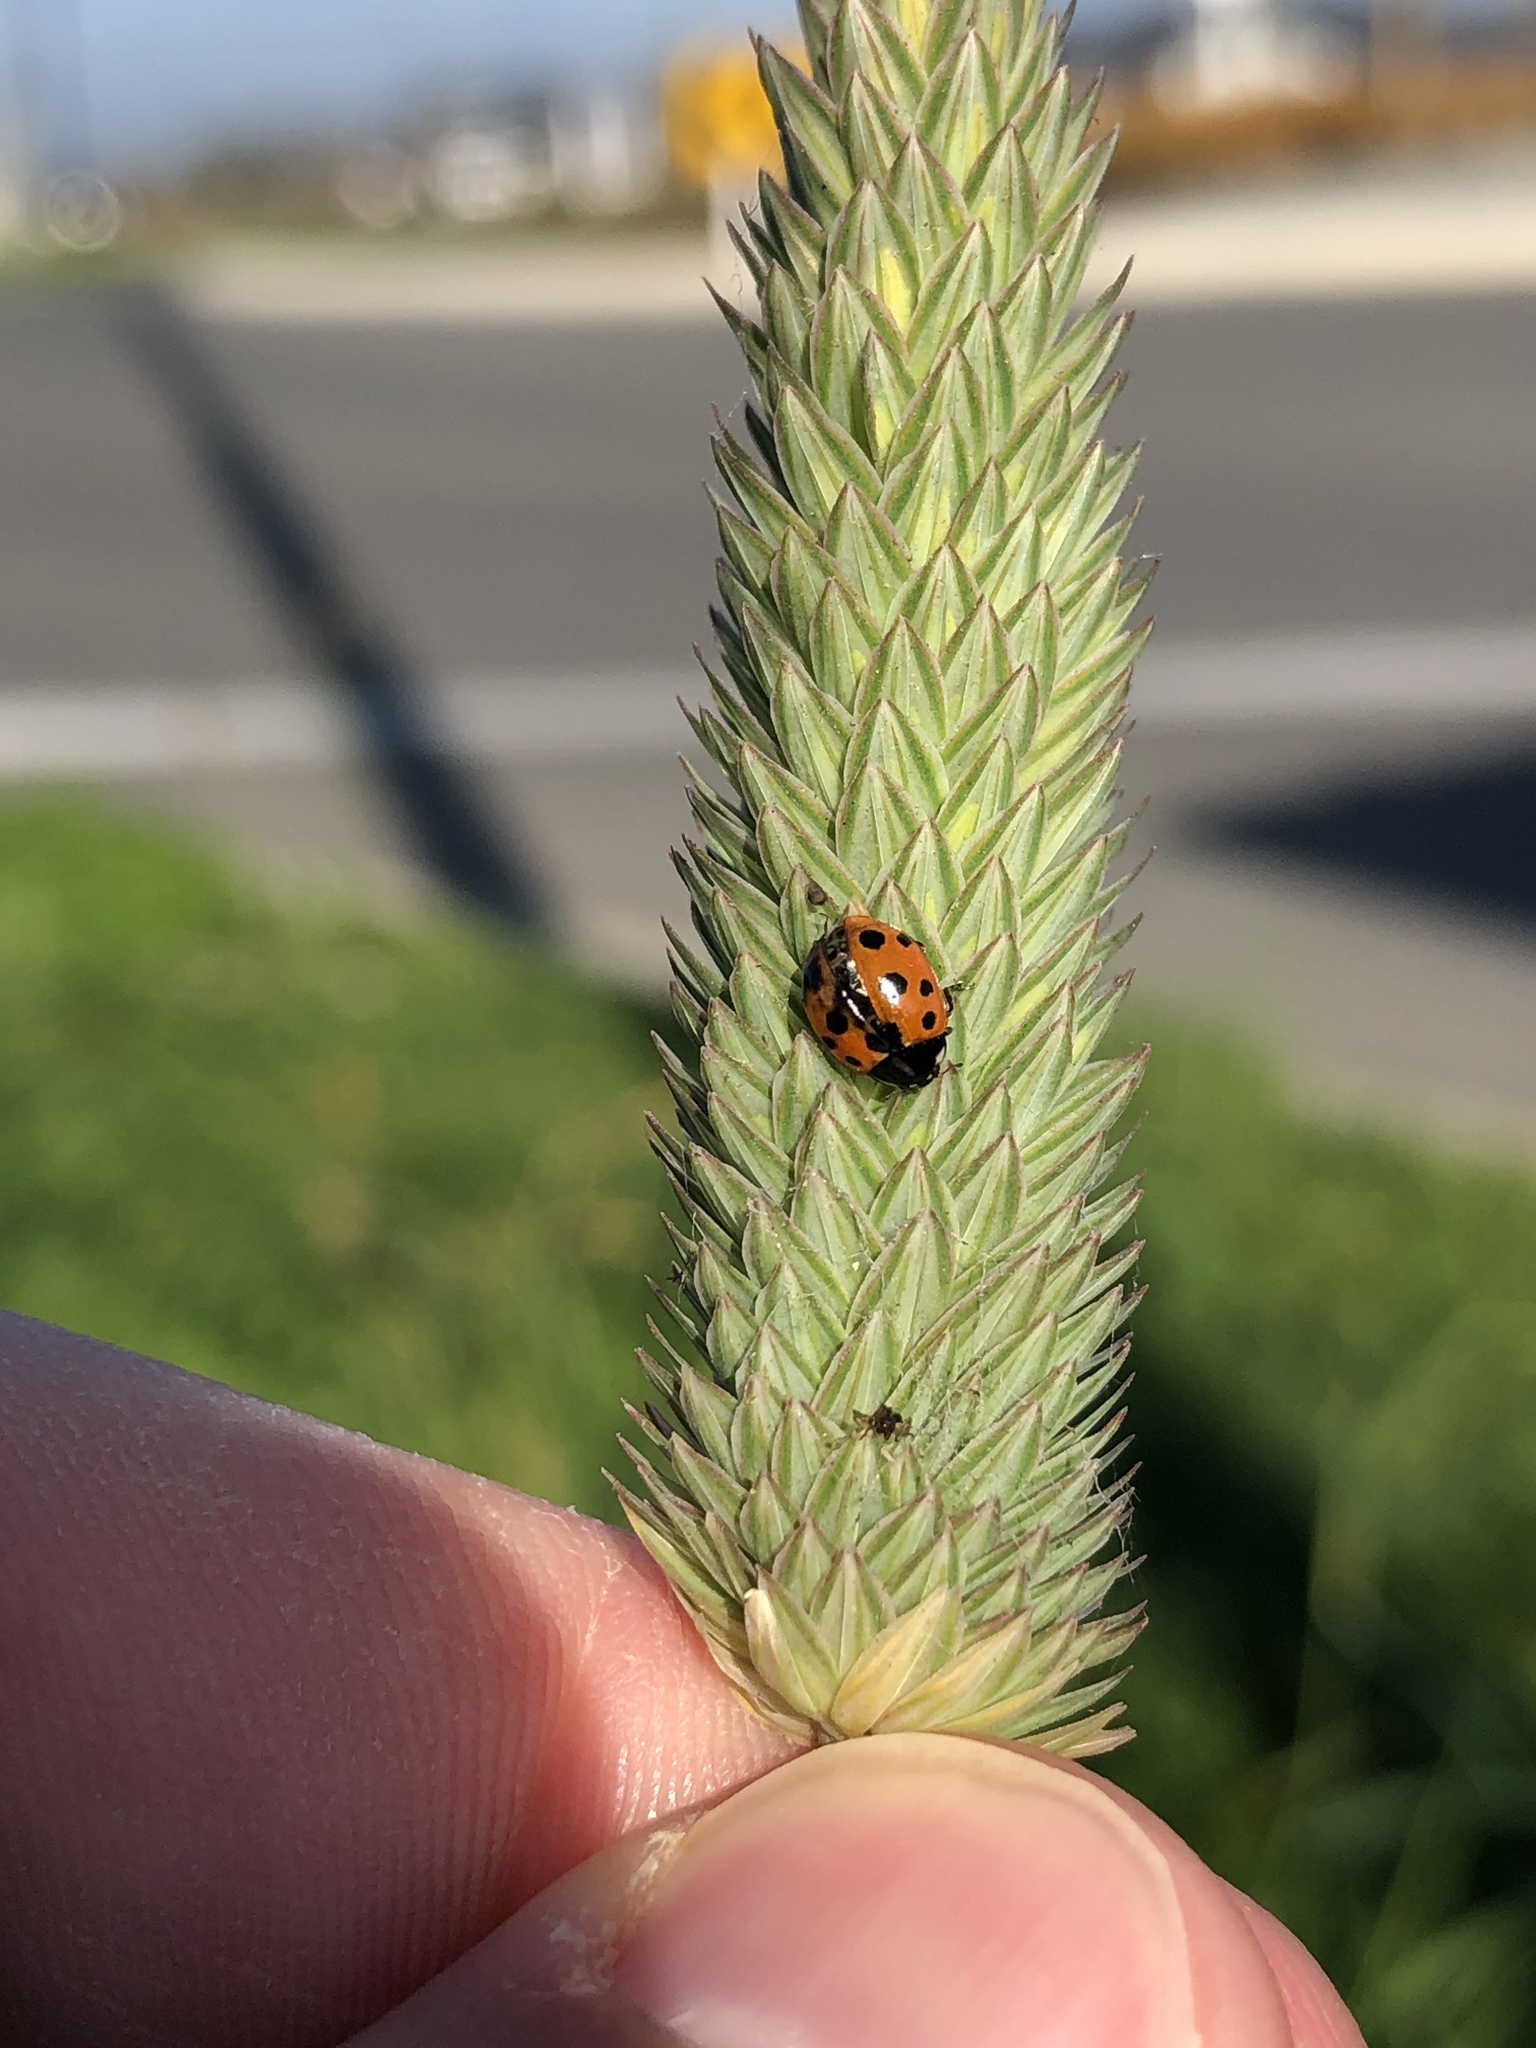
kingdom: Animalia
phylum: Arthropoda
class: Insecta
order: Coleoptera
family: Coccinellidae
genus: Coccinella
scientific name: Coccinella undecimpunctata
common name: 11-spot ladybird
